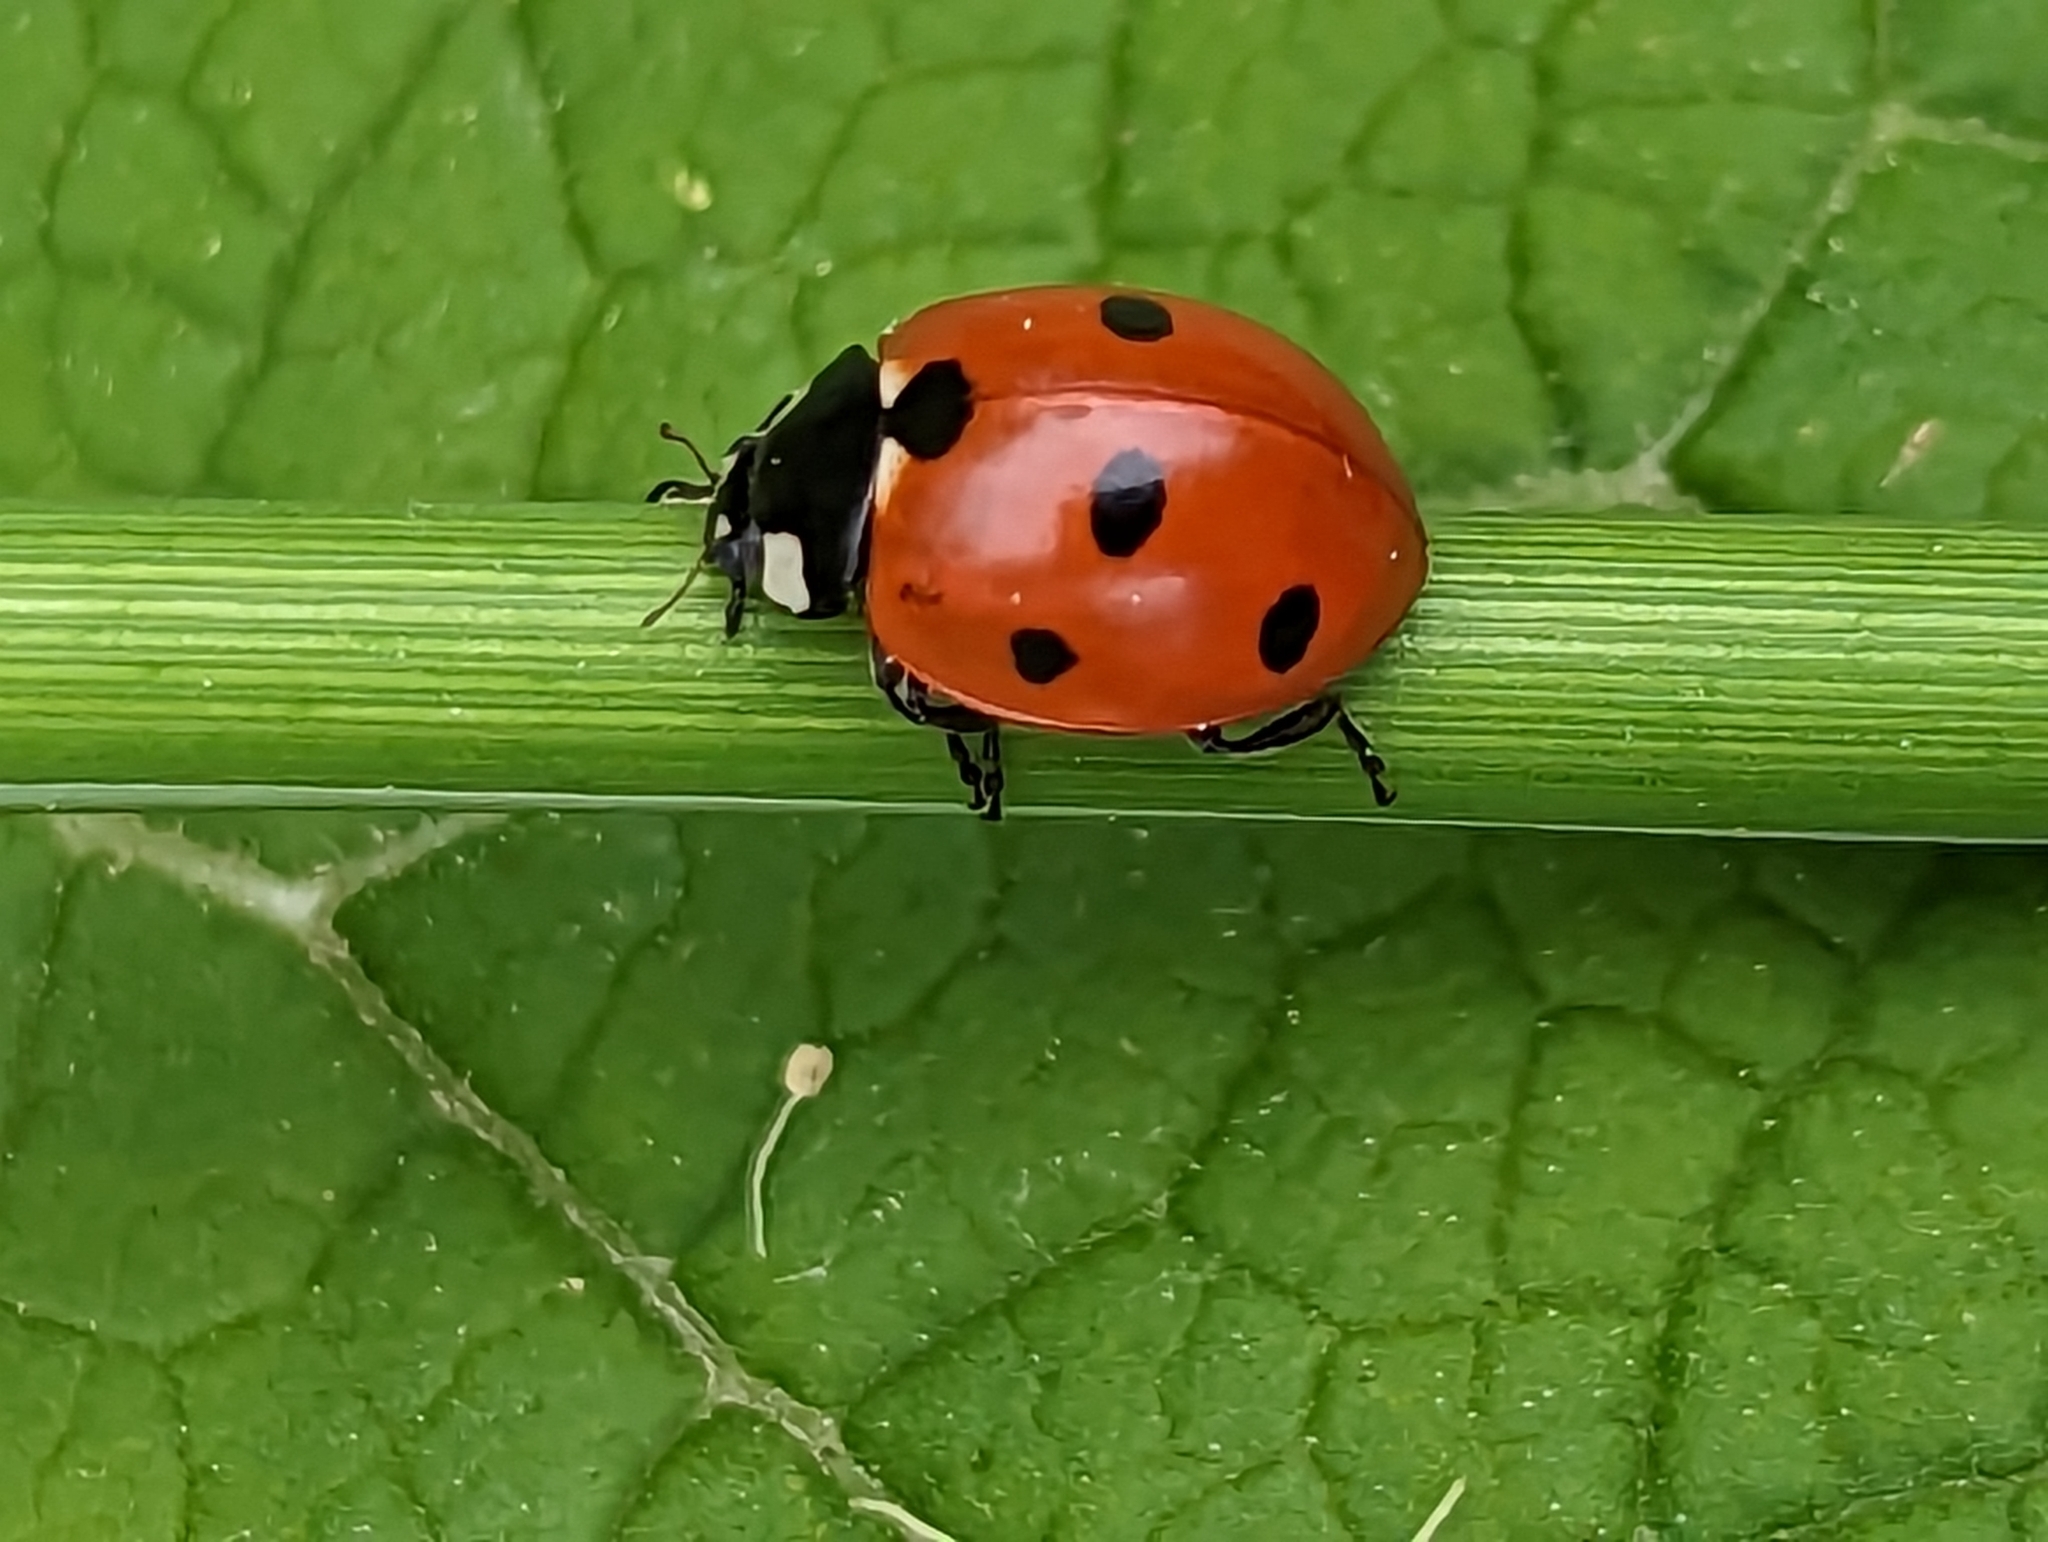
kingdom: Animalia
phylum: Arthropoda
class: Insecta
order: Coleoptera
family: Coccinellidae
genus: Coccinella
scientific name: Coccinella septempunctata
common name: Sevenspotted lady beetle
